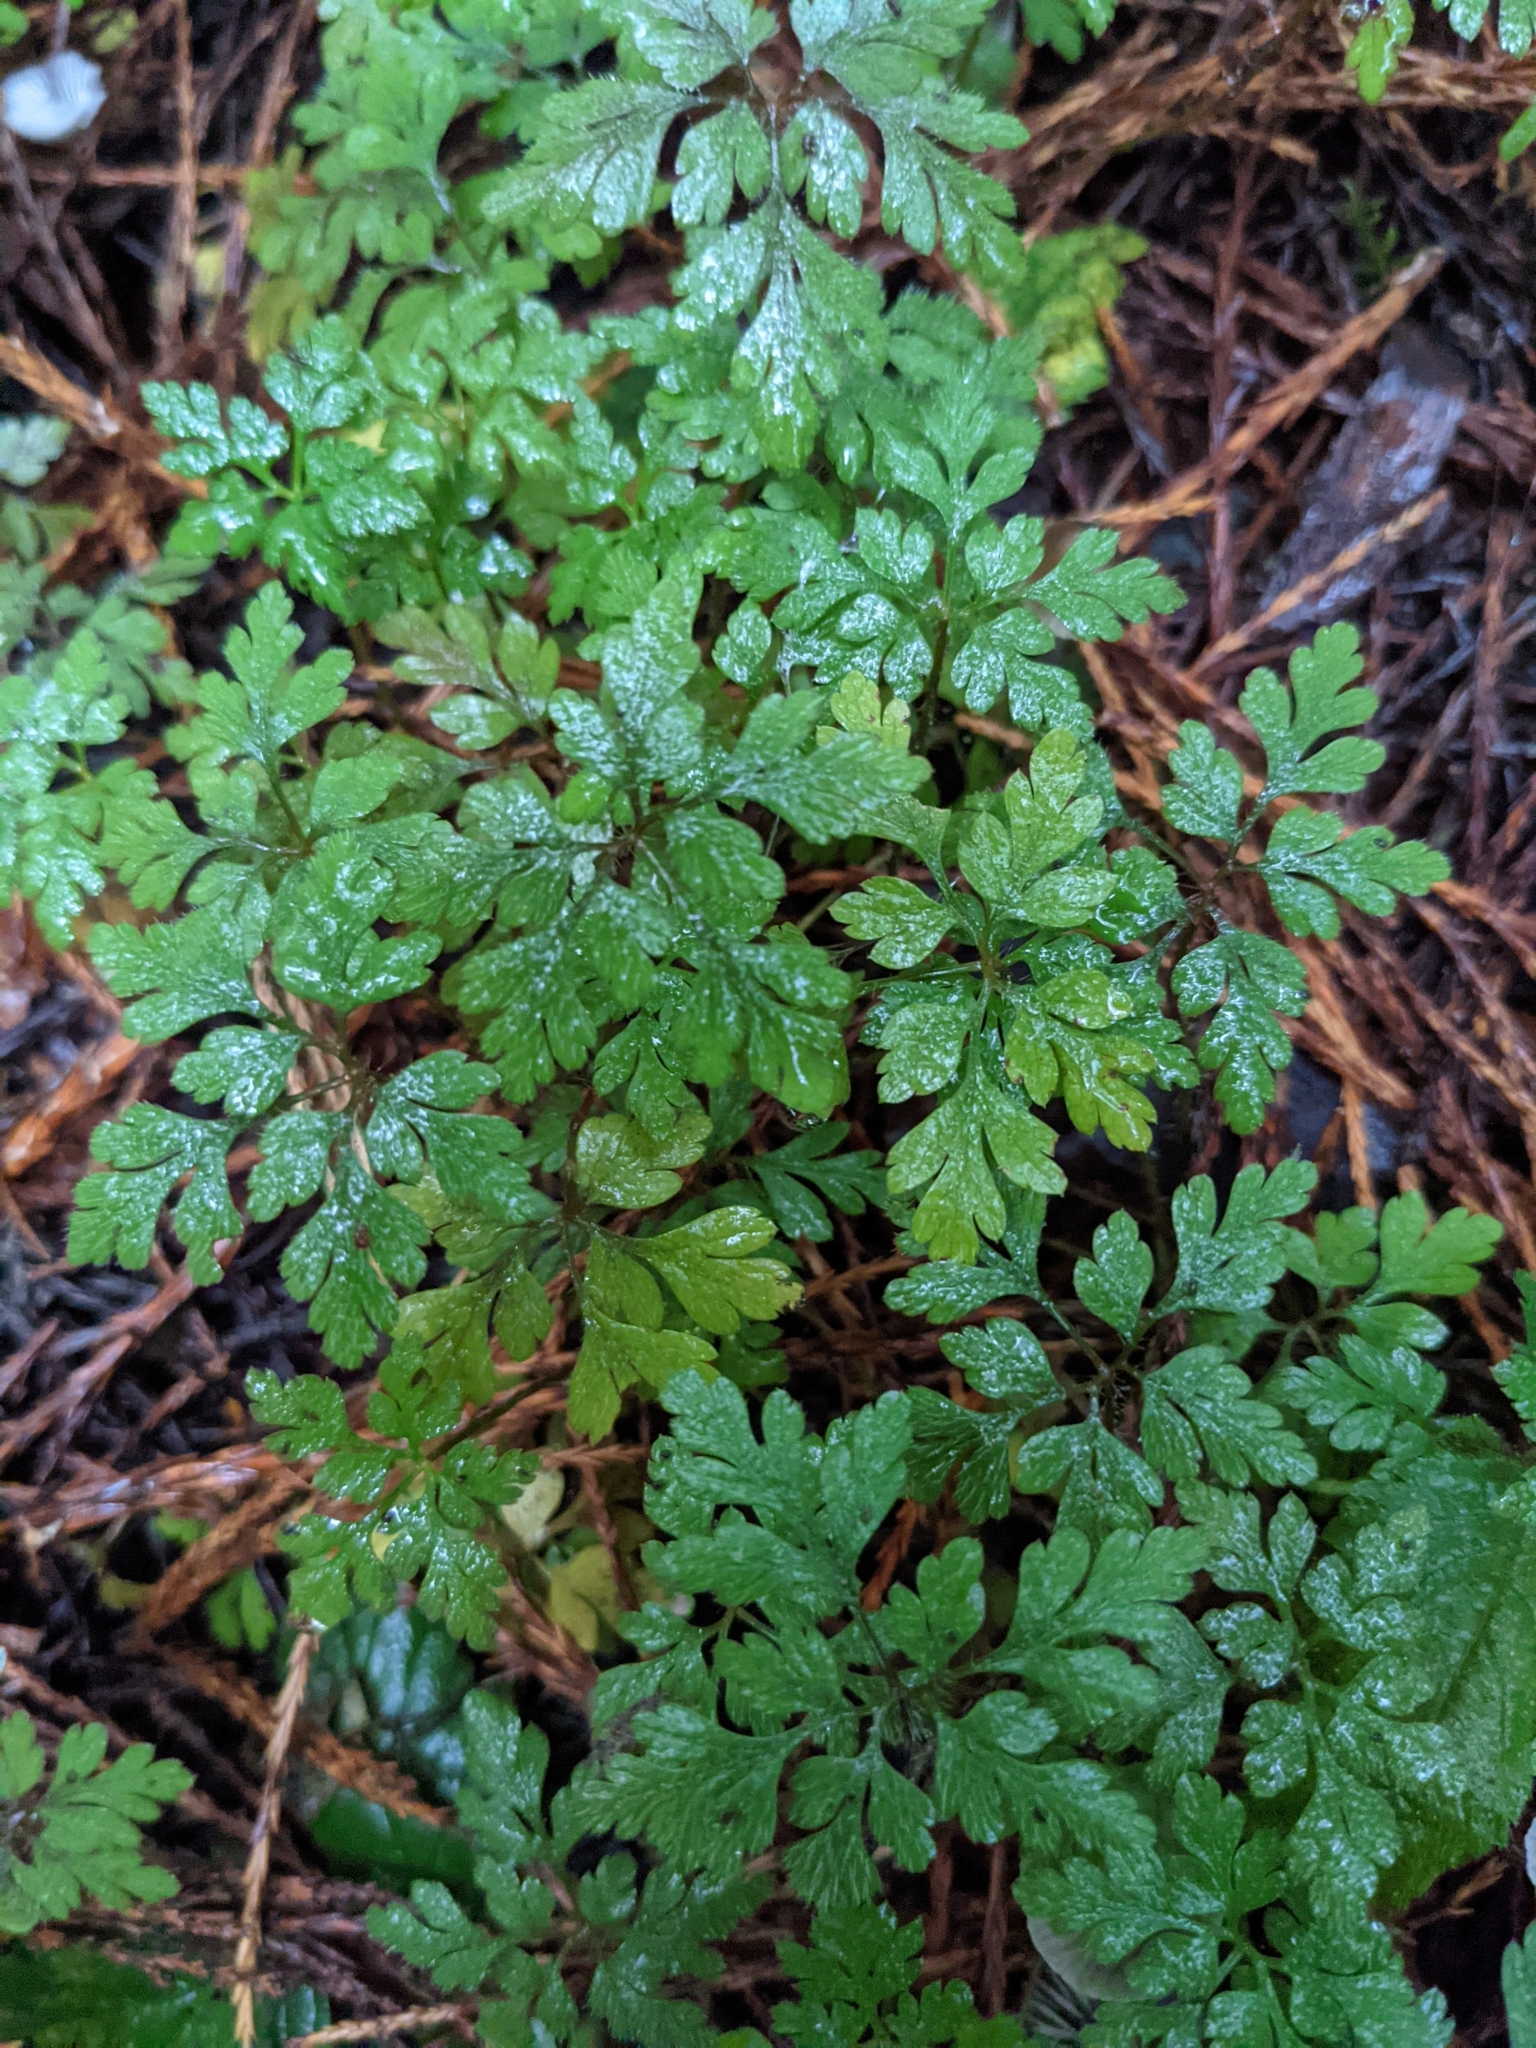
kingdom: Plantae
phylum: Tracheophyta
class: Magnoliopsida
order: Geraniales
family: Geraniaceae
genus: Geranium
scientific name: Geranium robertianum
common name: Herb-robert
